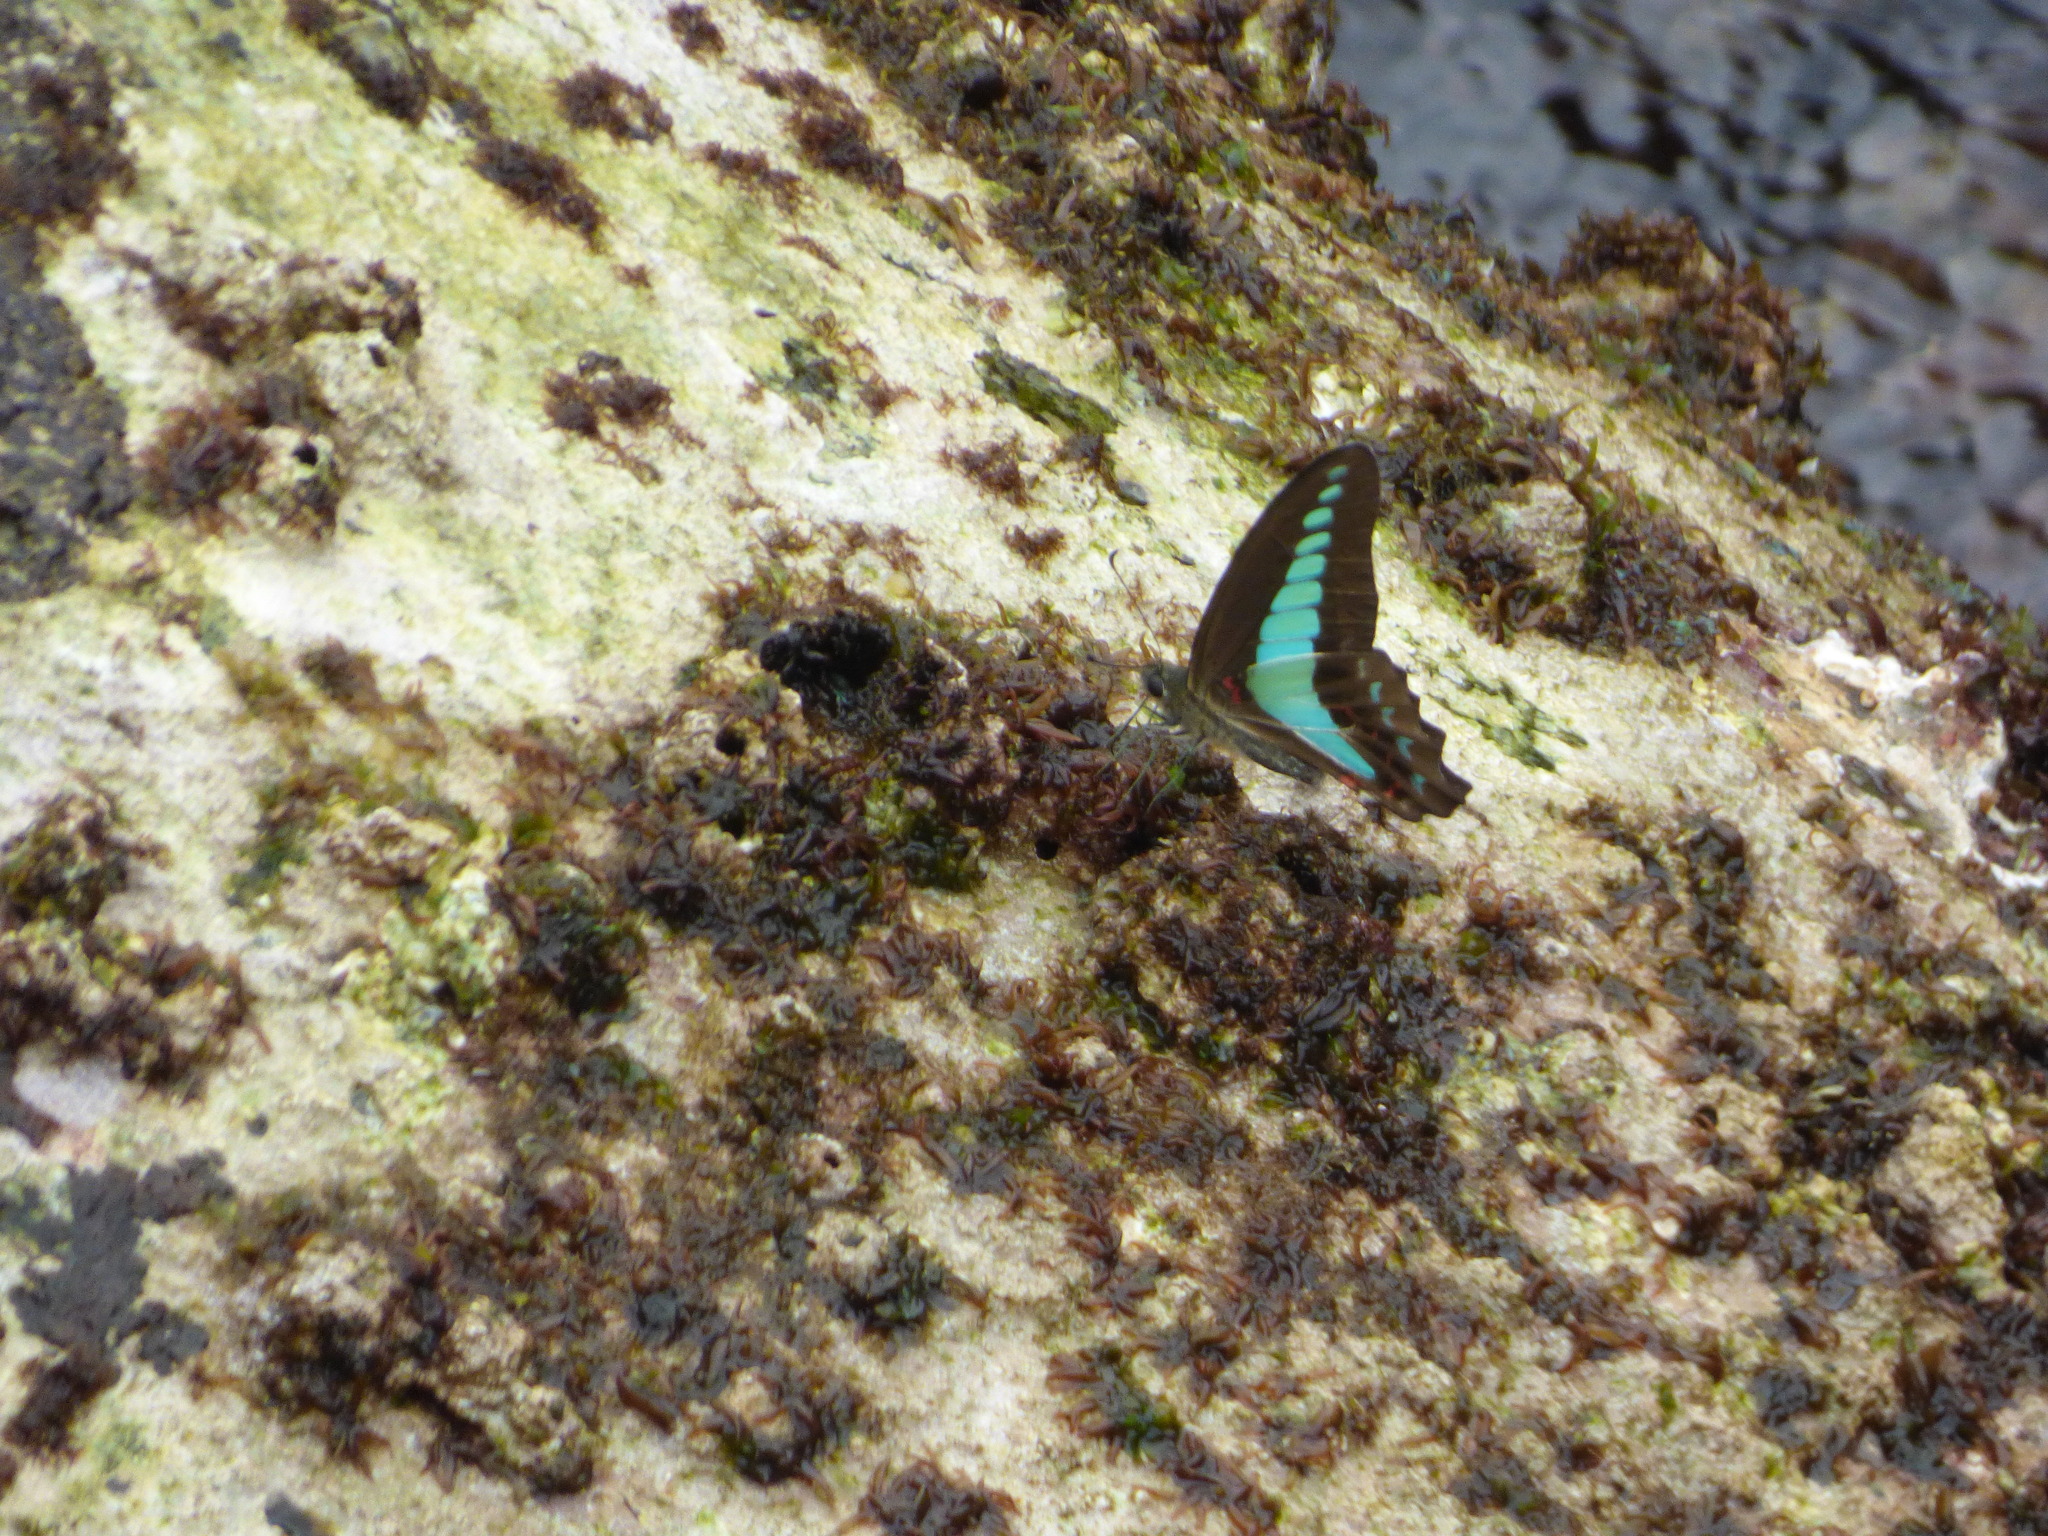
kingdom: Fungi
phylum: Ascomycota
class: Sordariomycetes
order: Microascales
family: Microascaceae
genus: Graphium
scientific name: Graphium sarpedon
